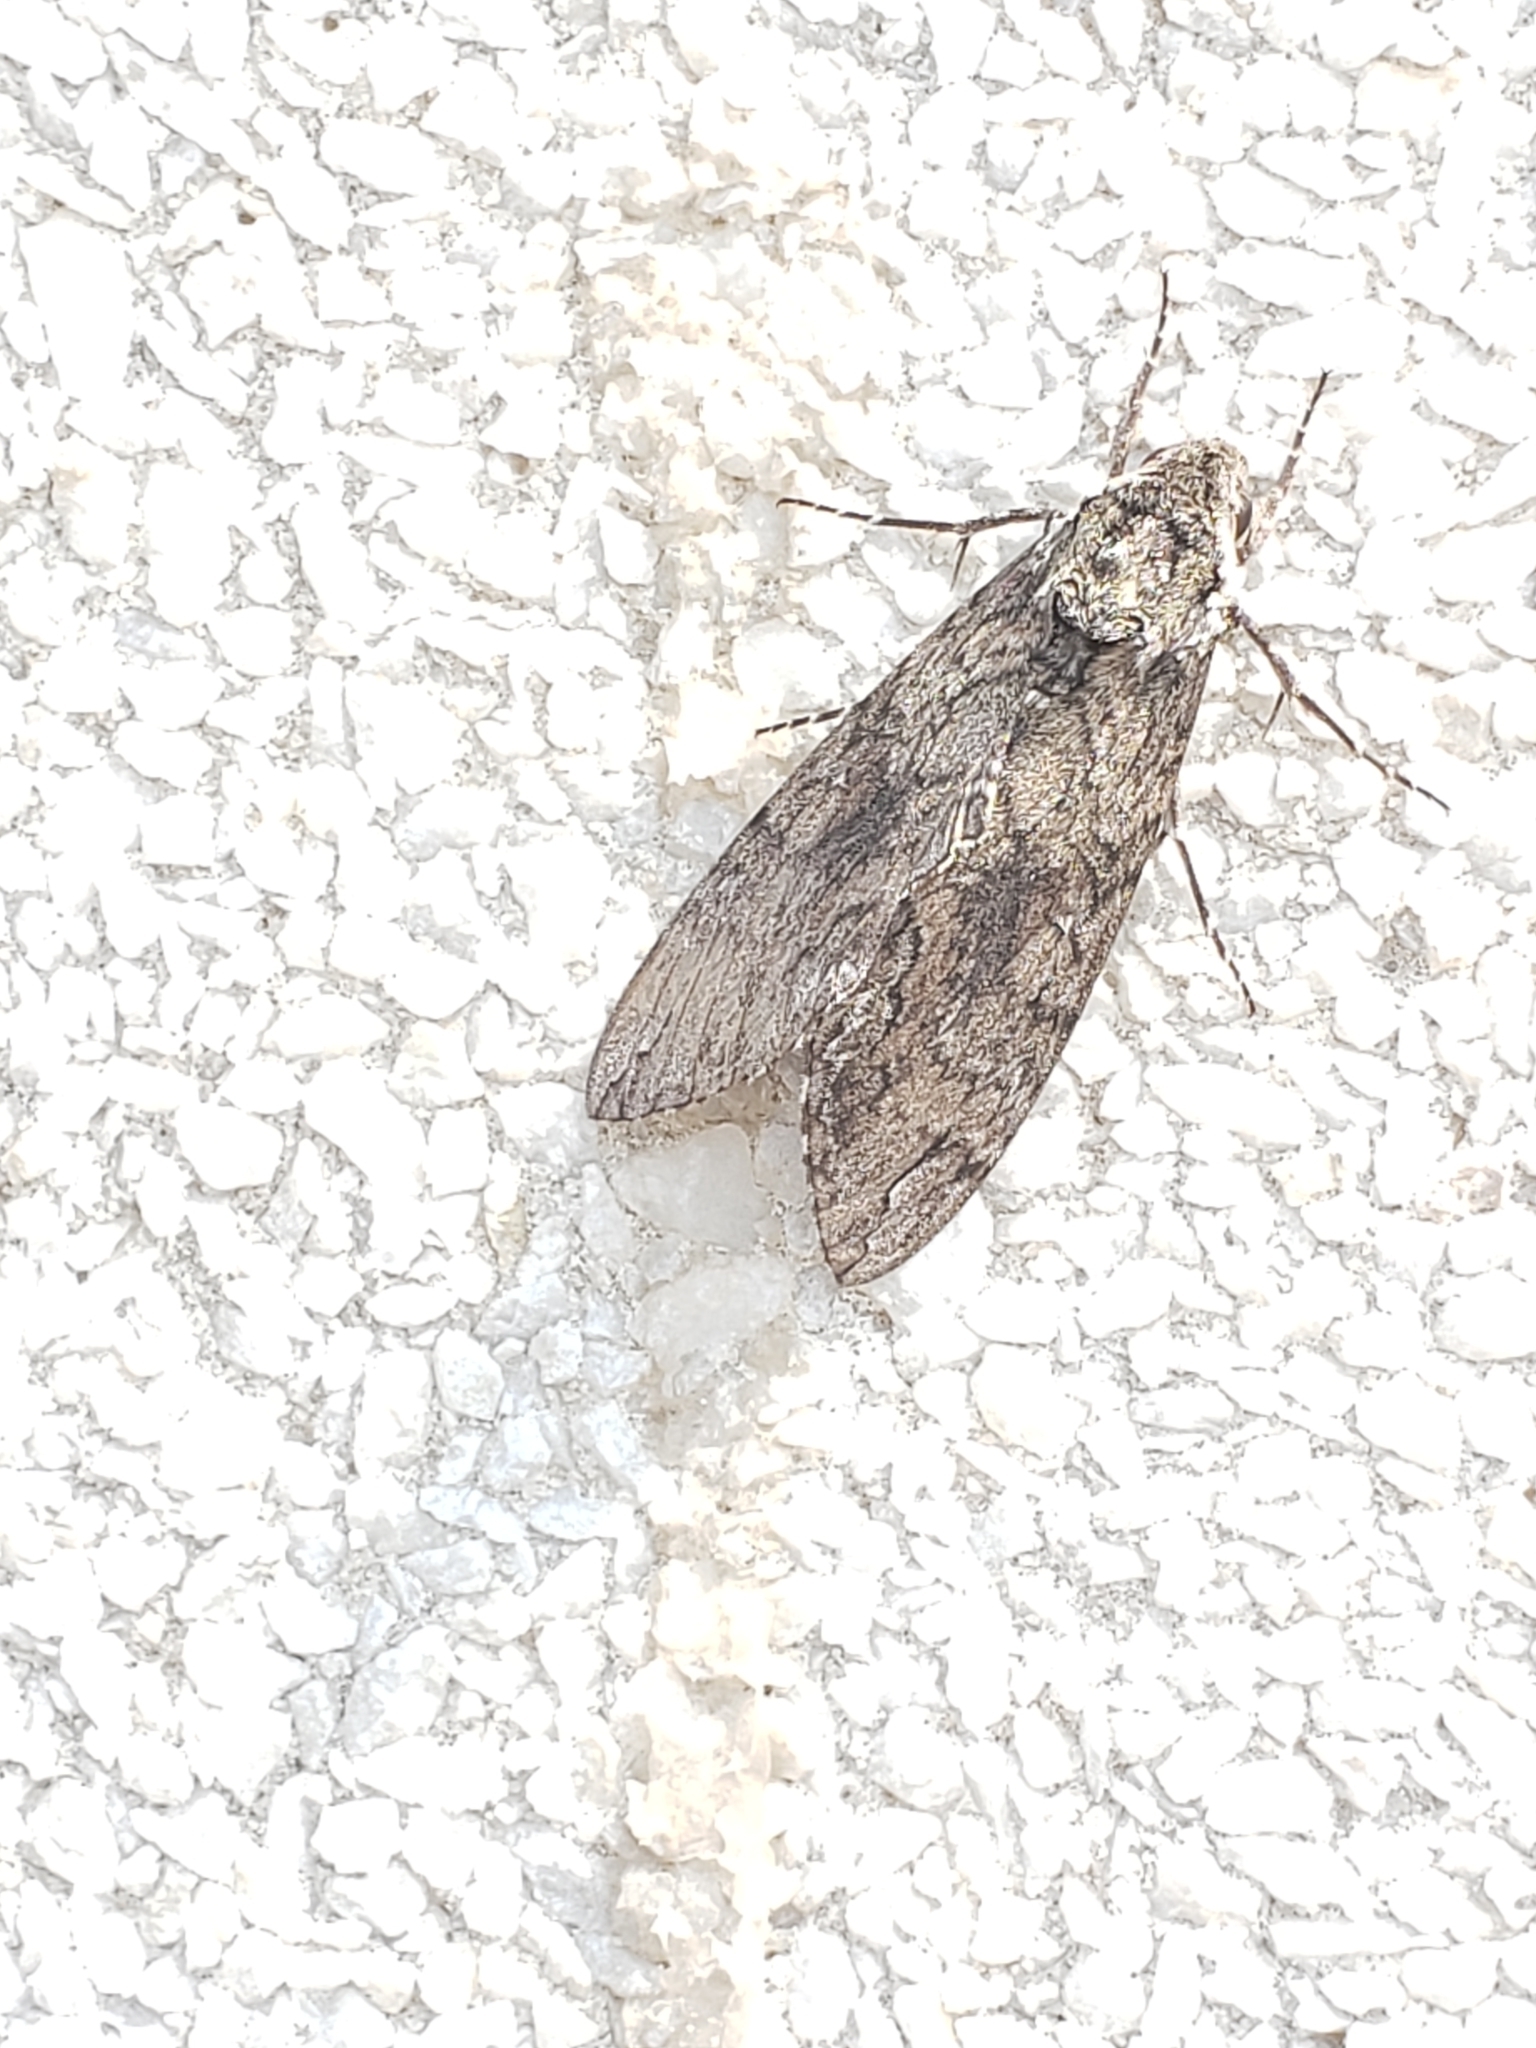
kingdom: Animalia
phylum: Arthropoda
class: Insecta
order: Lepidoptera
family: Sphingidae
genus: Manduca
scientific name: Manduca sexta
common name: Carolina sphinx
